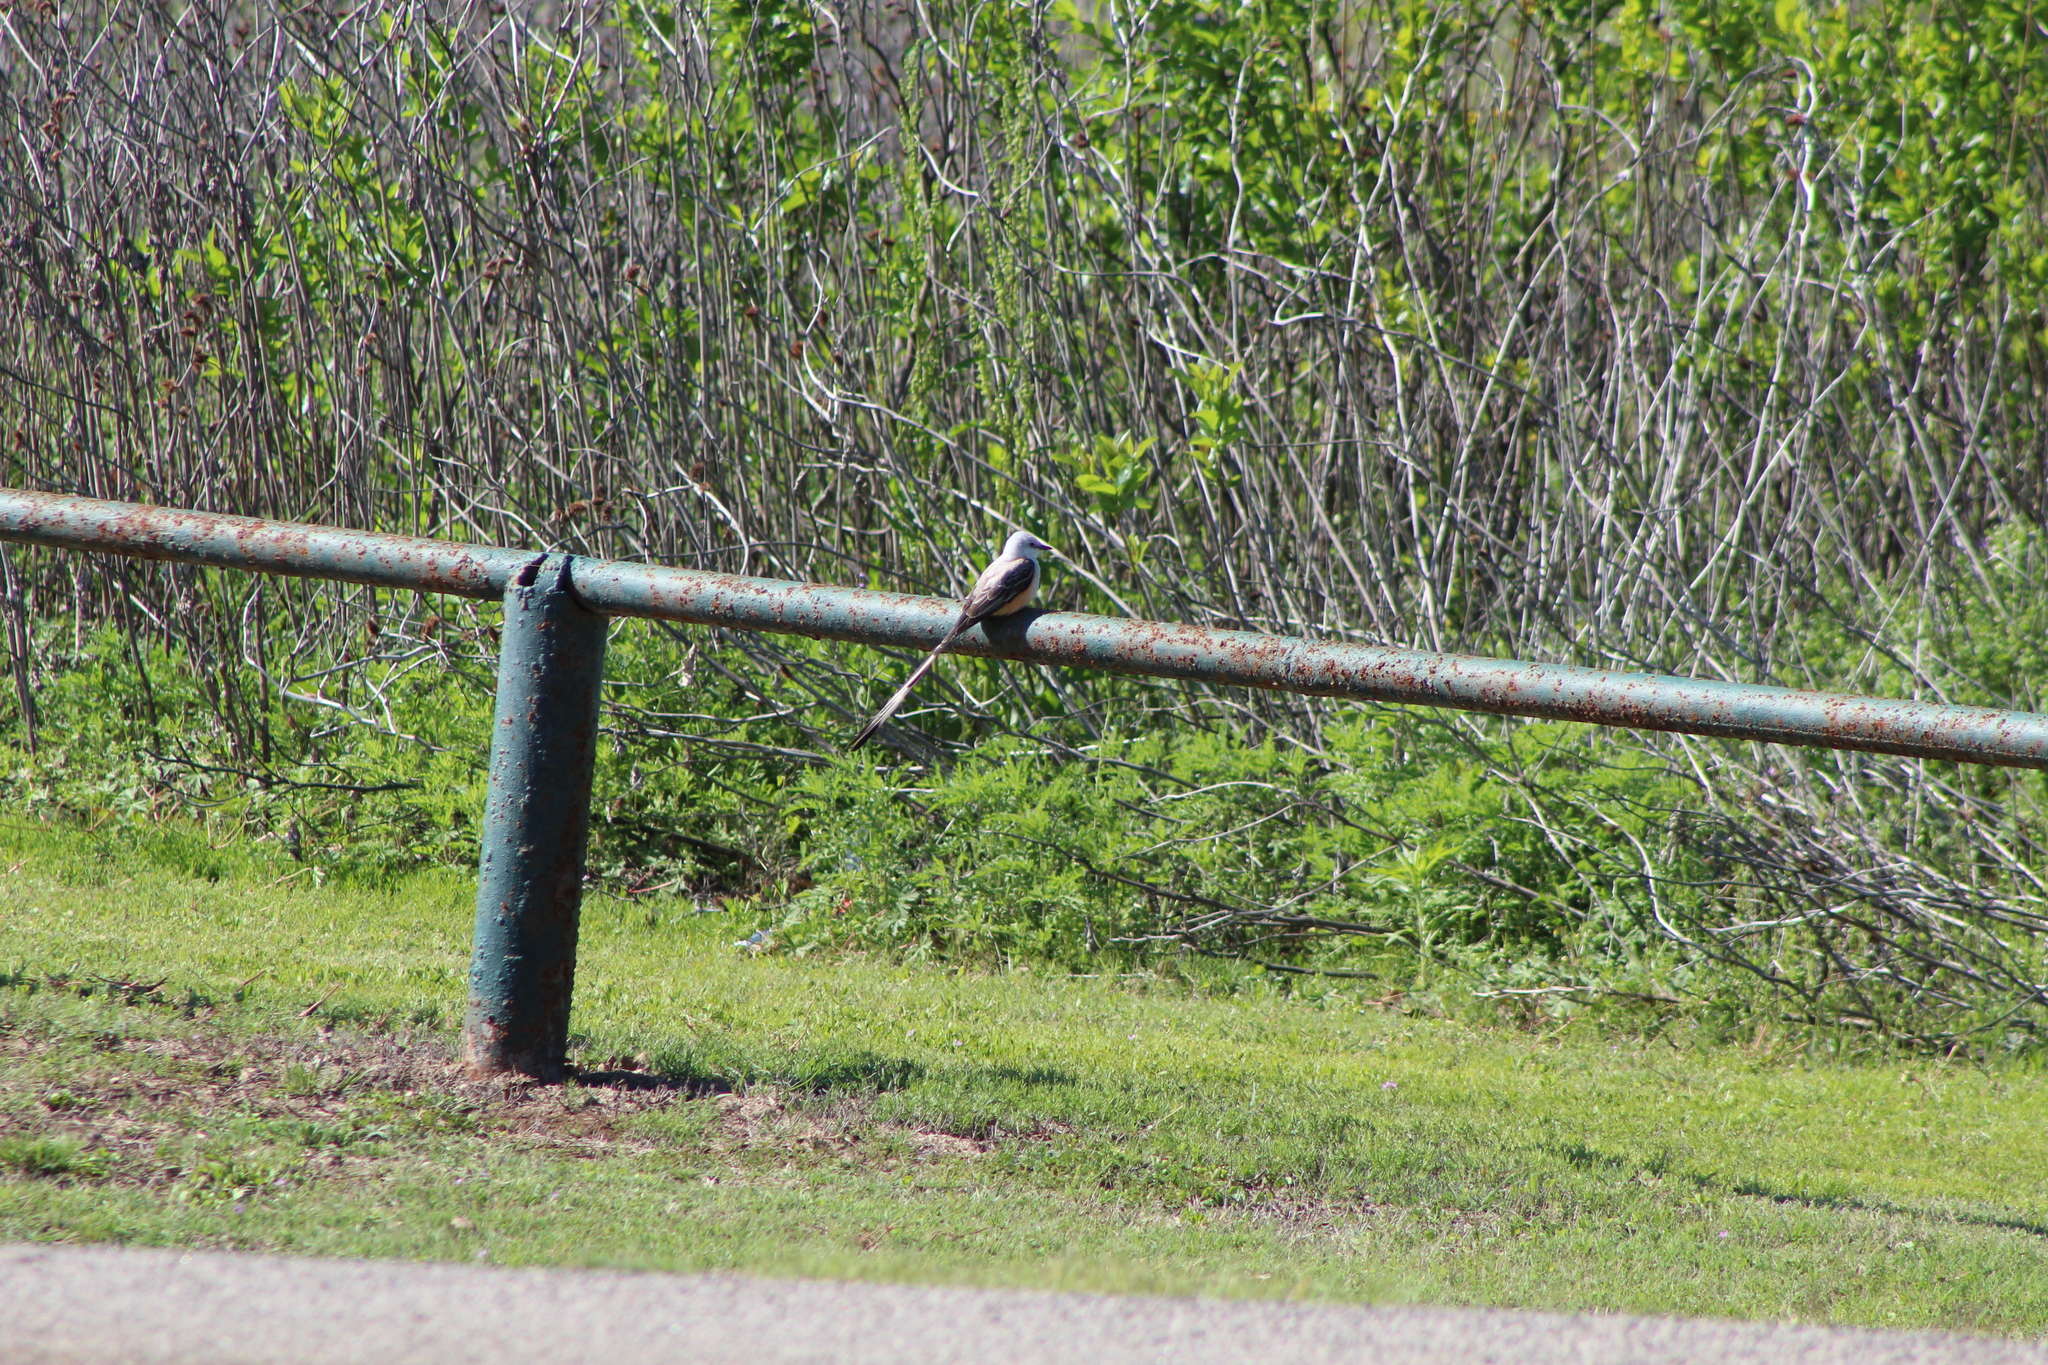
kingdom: Animalia
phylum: Chordata
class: Aves
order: Passeriformes
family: Tyrannidae
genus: Tyrannus
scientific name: Tyrannus forficatus
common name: Scissor-tailed flycatcher
